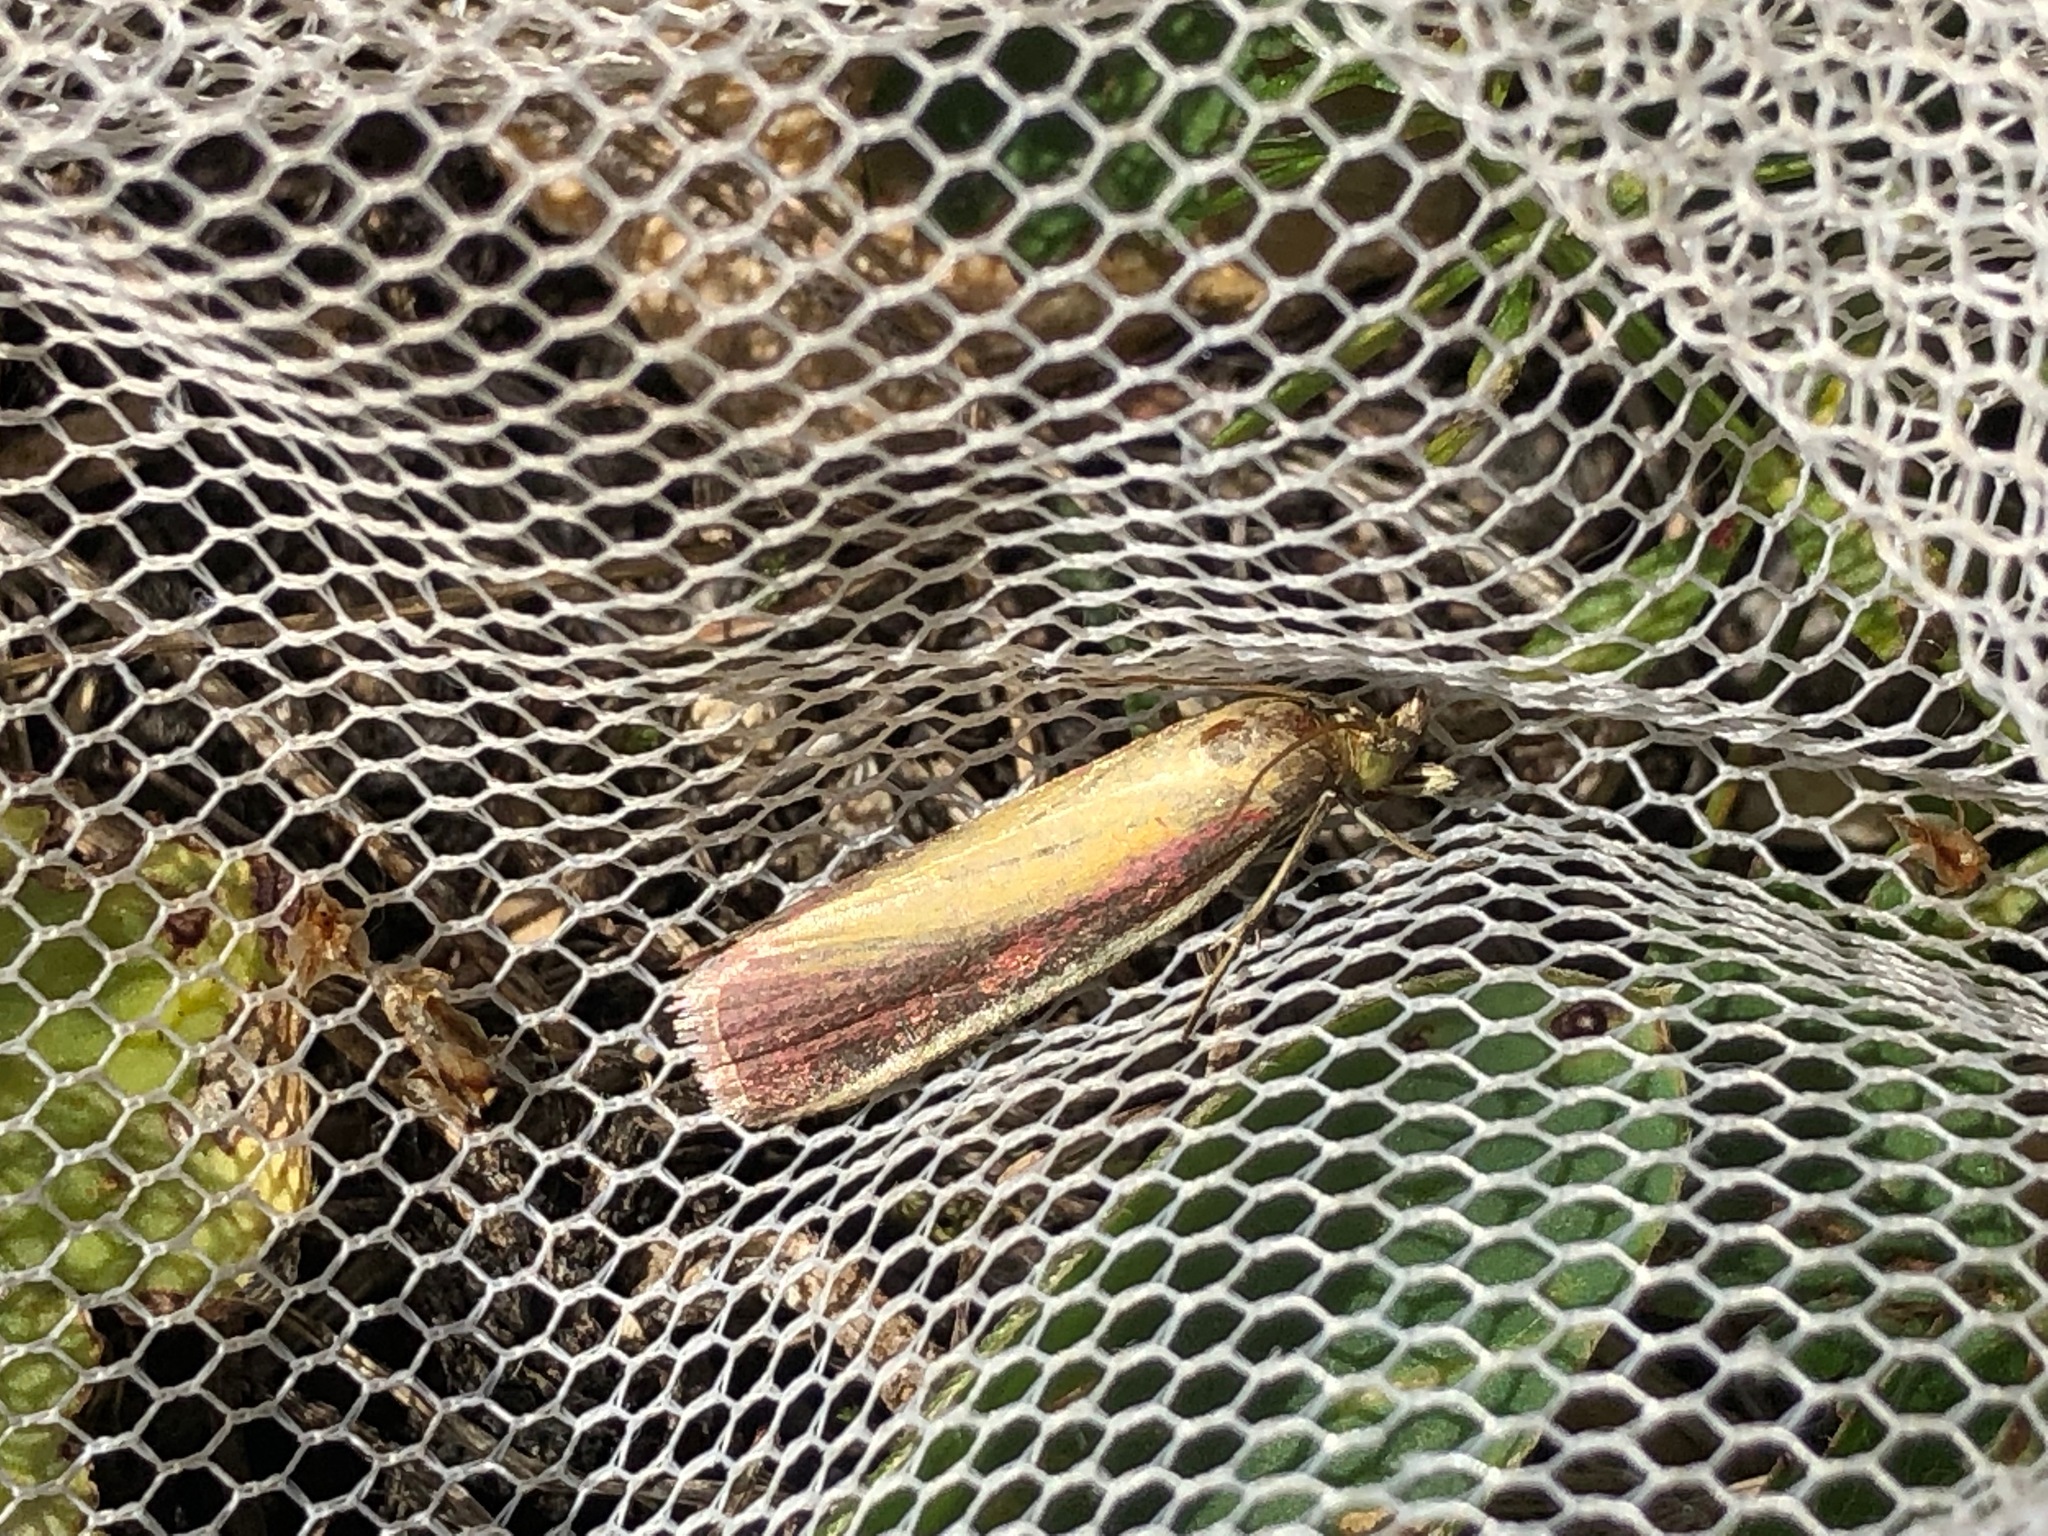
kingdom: Animalia
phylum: Arthropoda
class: Insecta
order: Lepidoptera
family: Pyralidae
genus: Oncocera
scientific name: Oncocera semirubella
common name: Rosy-striped knot-horn
